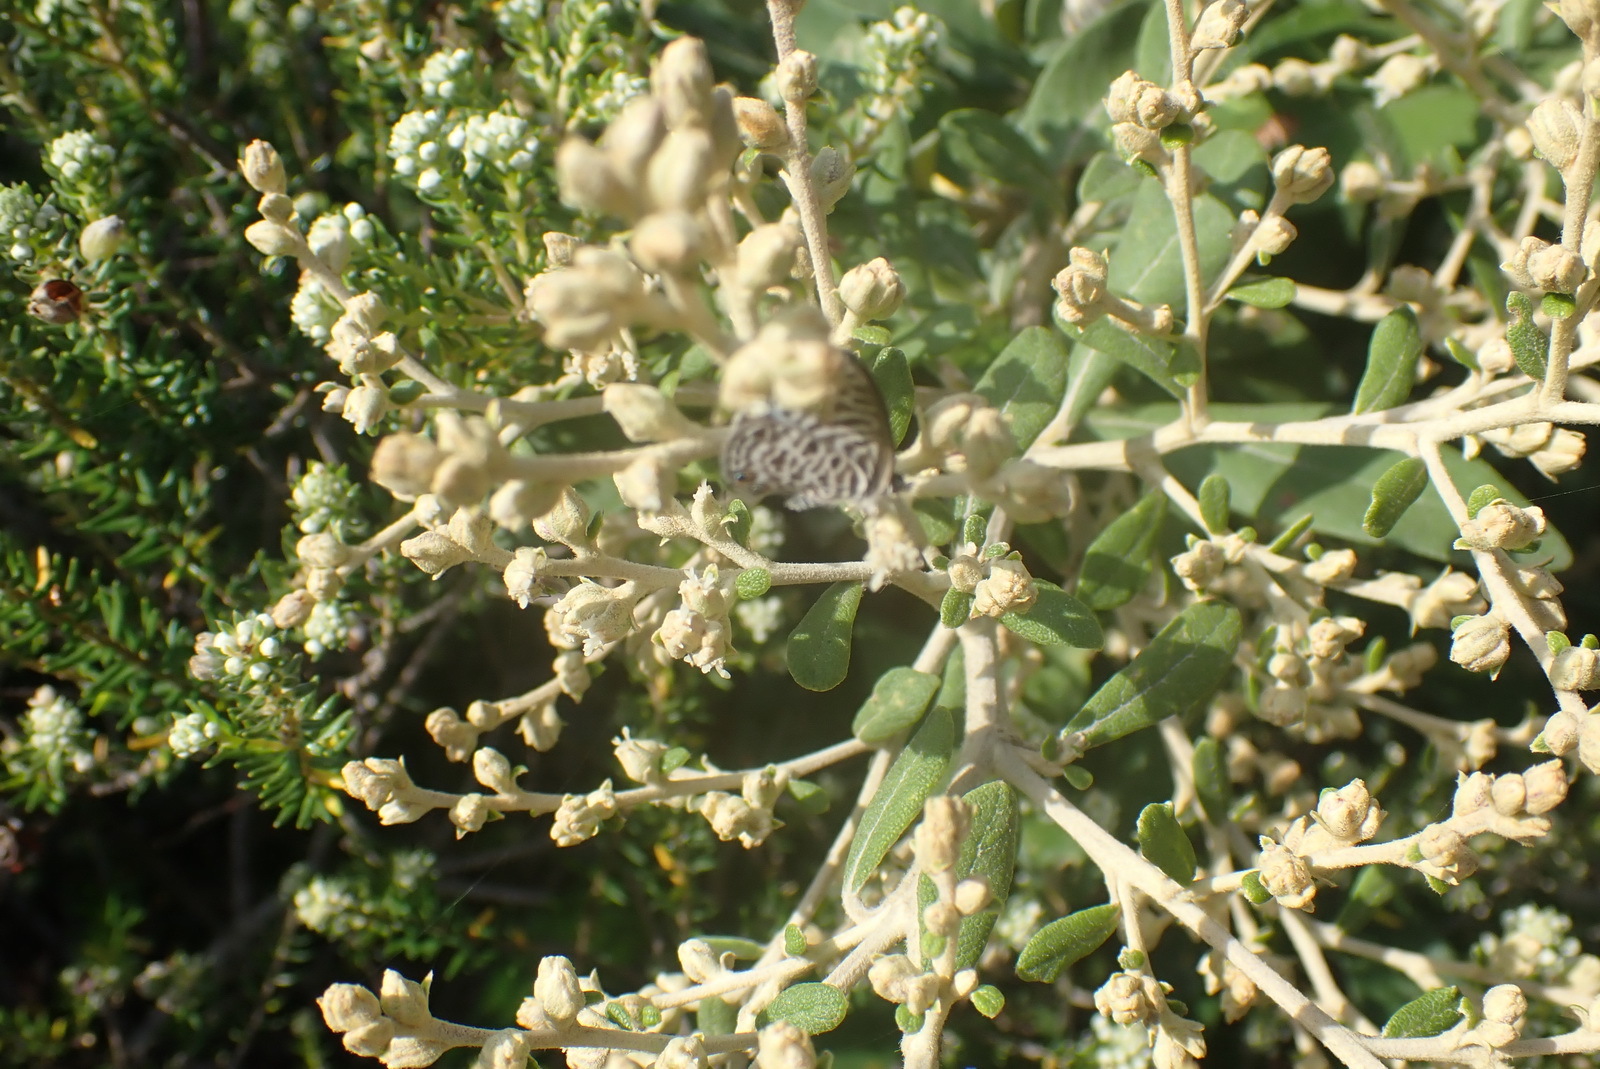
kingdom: Plantae
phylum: Tracheophyta
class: Magnoliopsida
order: Asterales
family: Asteraceae
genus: Tarchonanthus
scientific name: Tarchonanthus littoralis
